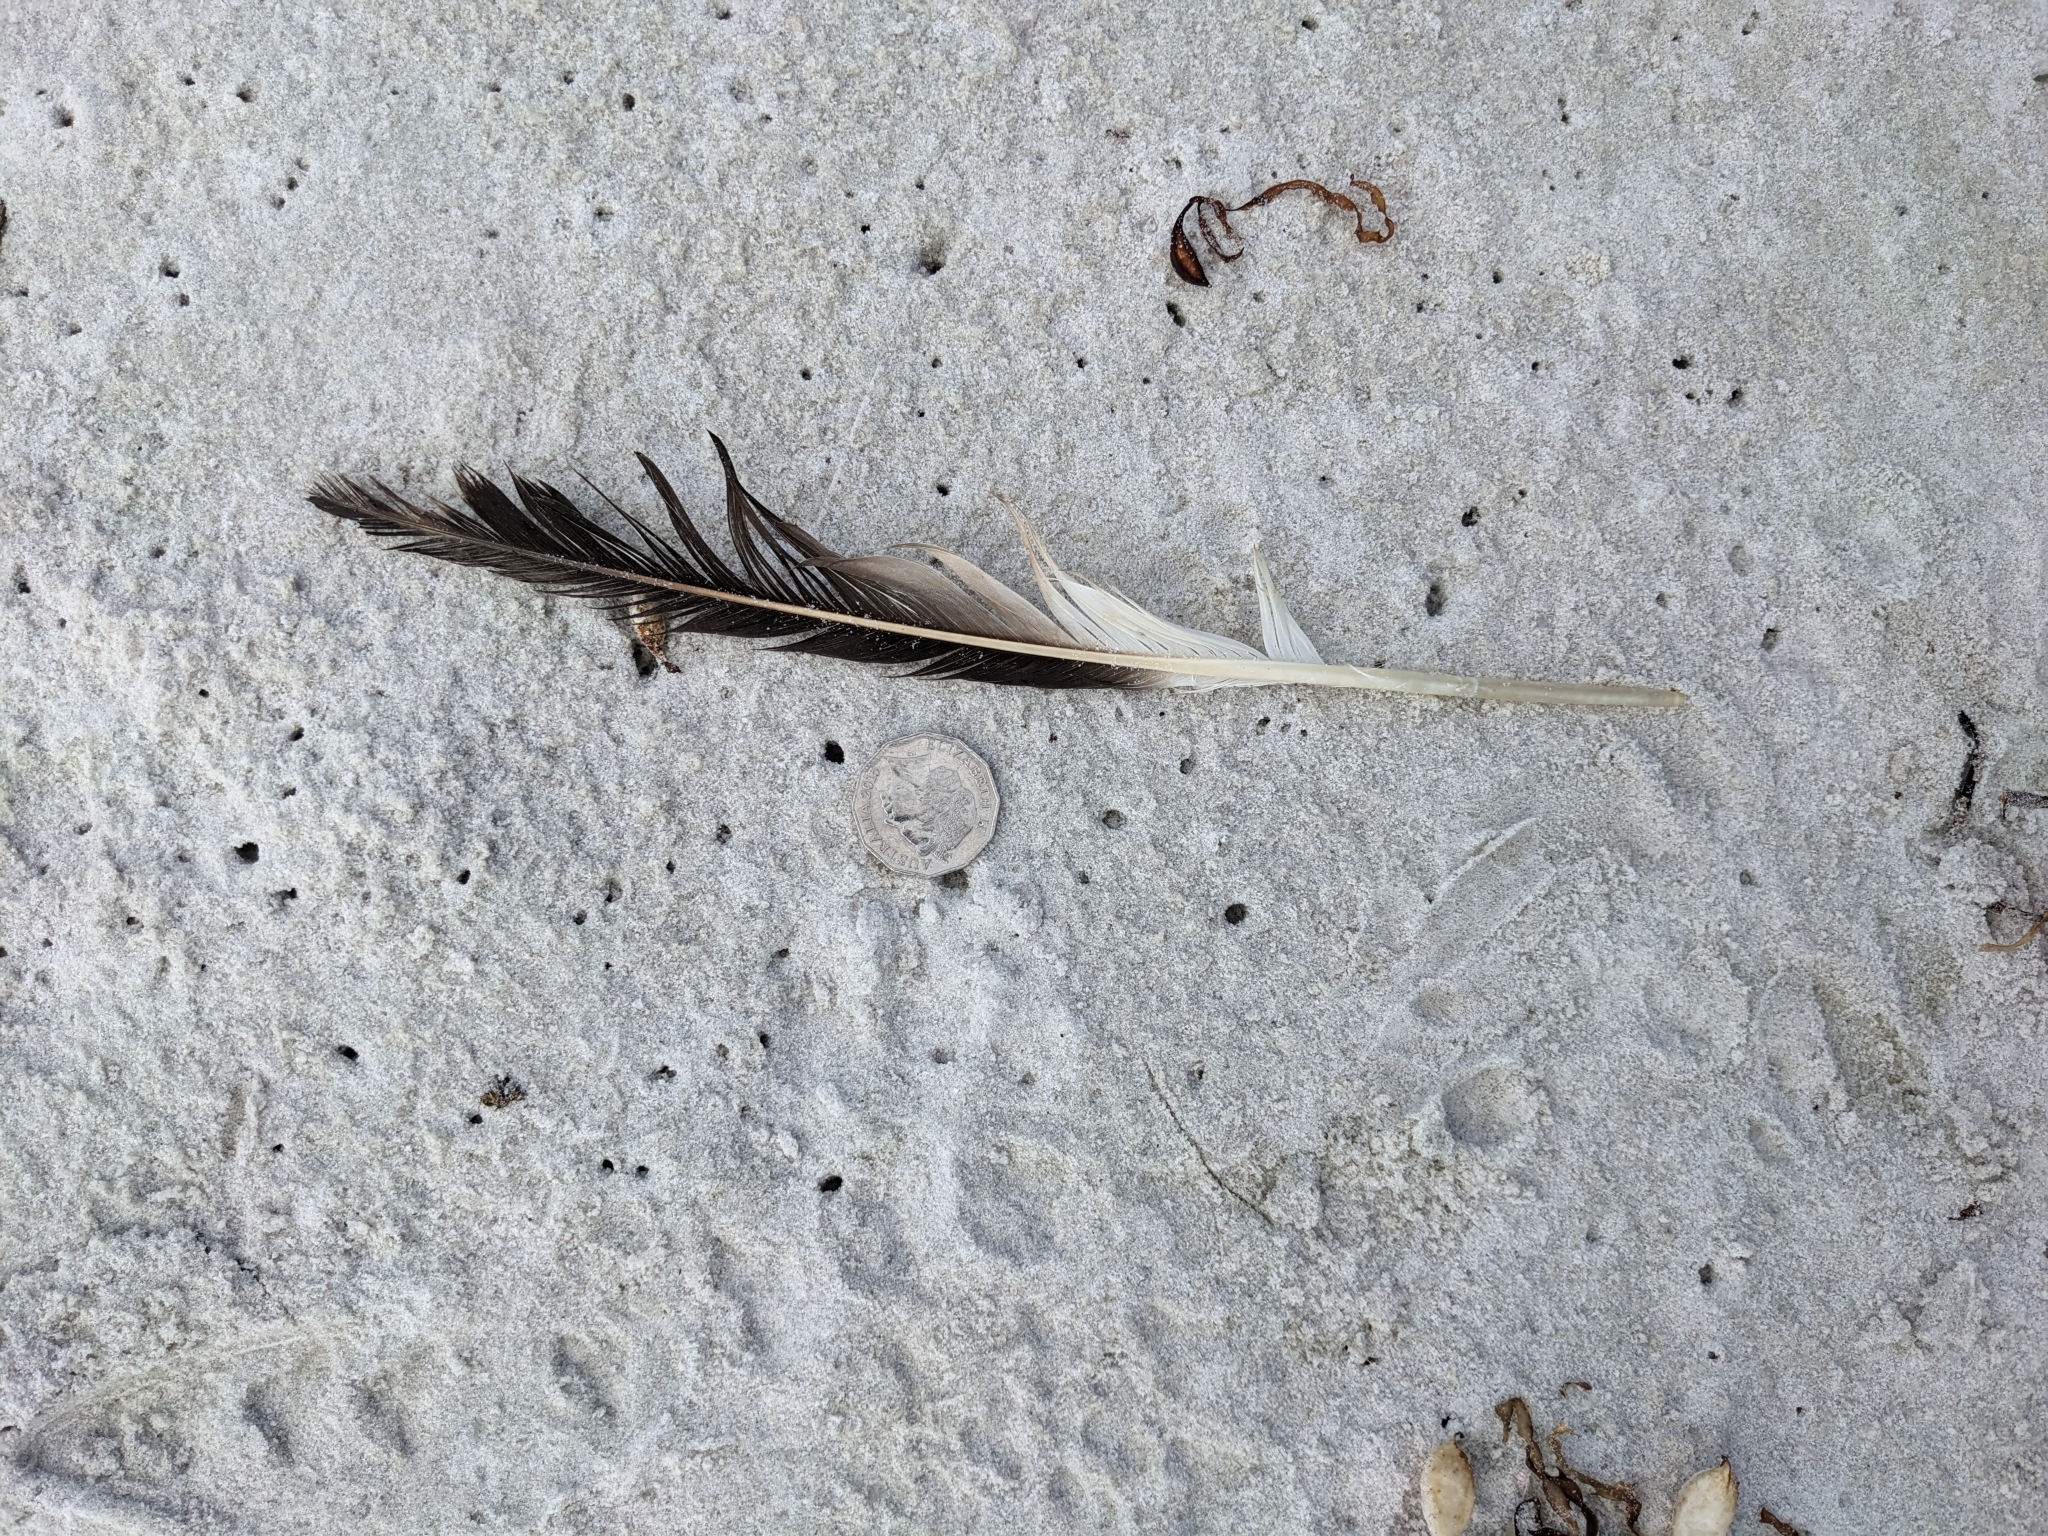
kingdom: Animalia
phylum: Chordata
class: Aves
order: Suliformes
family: Sulidae
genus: Morus
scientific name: Morus serrator
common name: Australasian gannet
